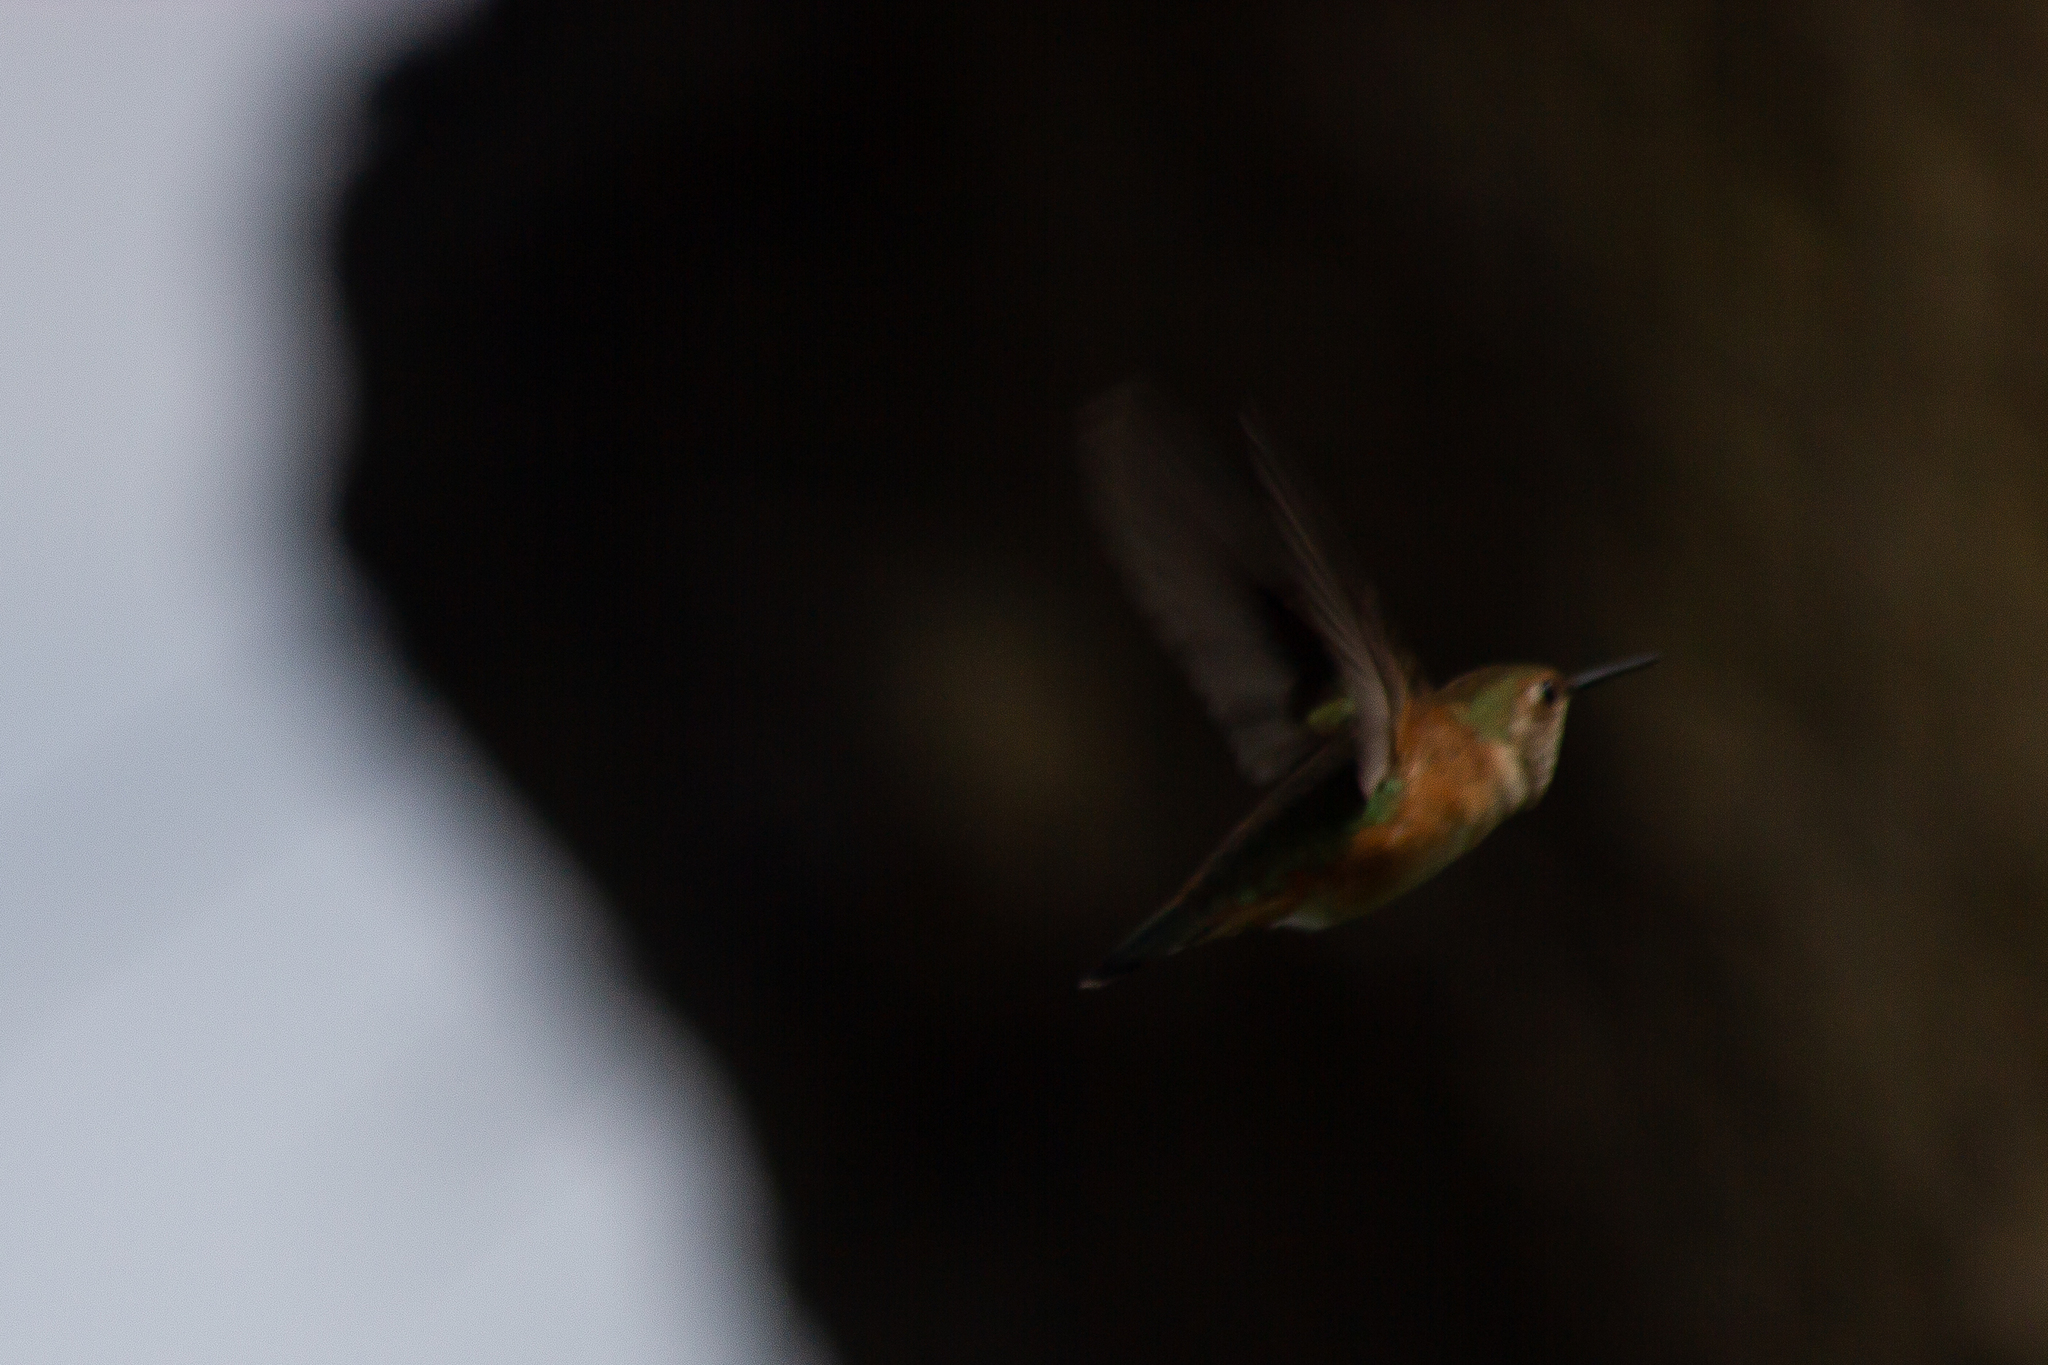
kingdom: Animalia
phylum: Chordata
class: Aves
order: Apodiformes
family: Trochilidae
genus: Selasphorus
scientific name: Selasphorus rufus
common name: Rufous hummingbird
